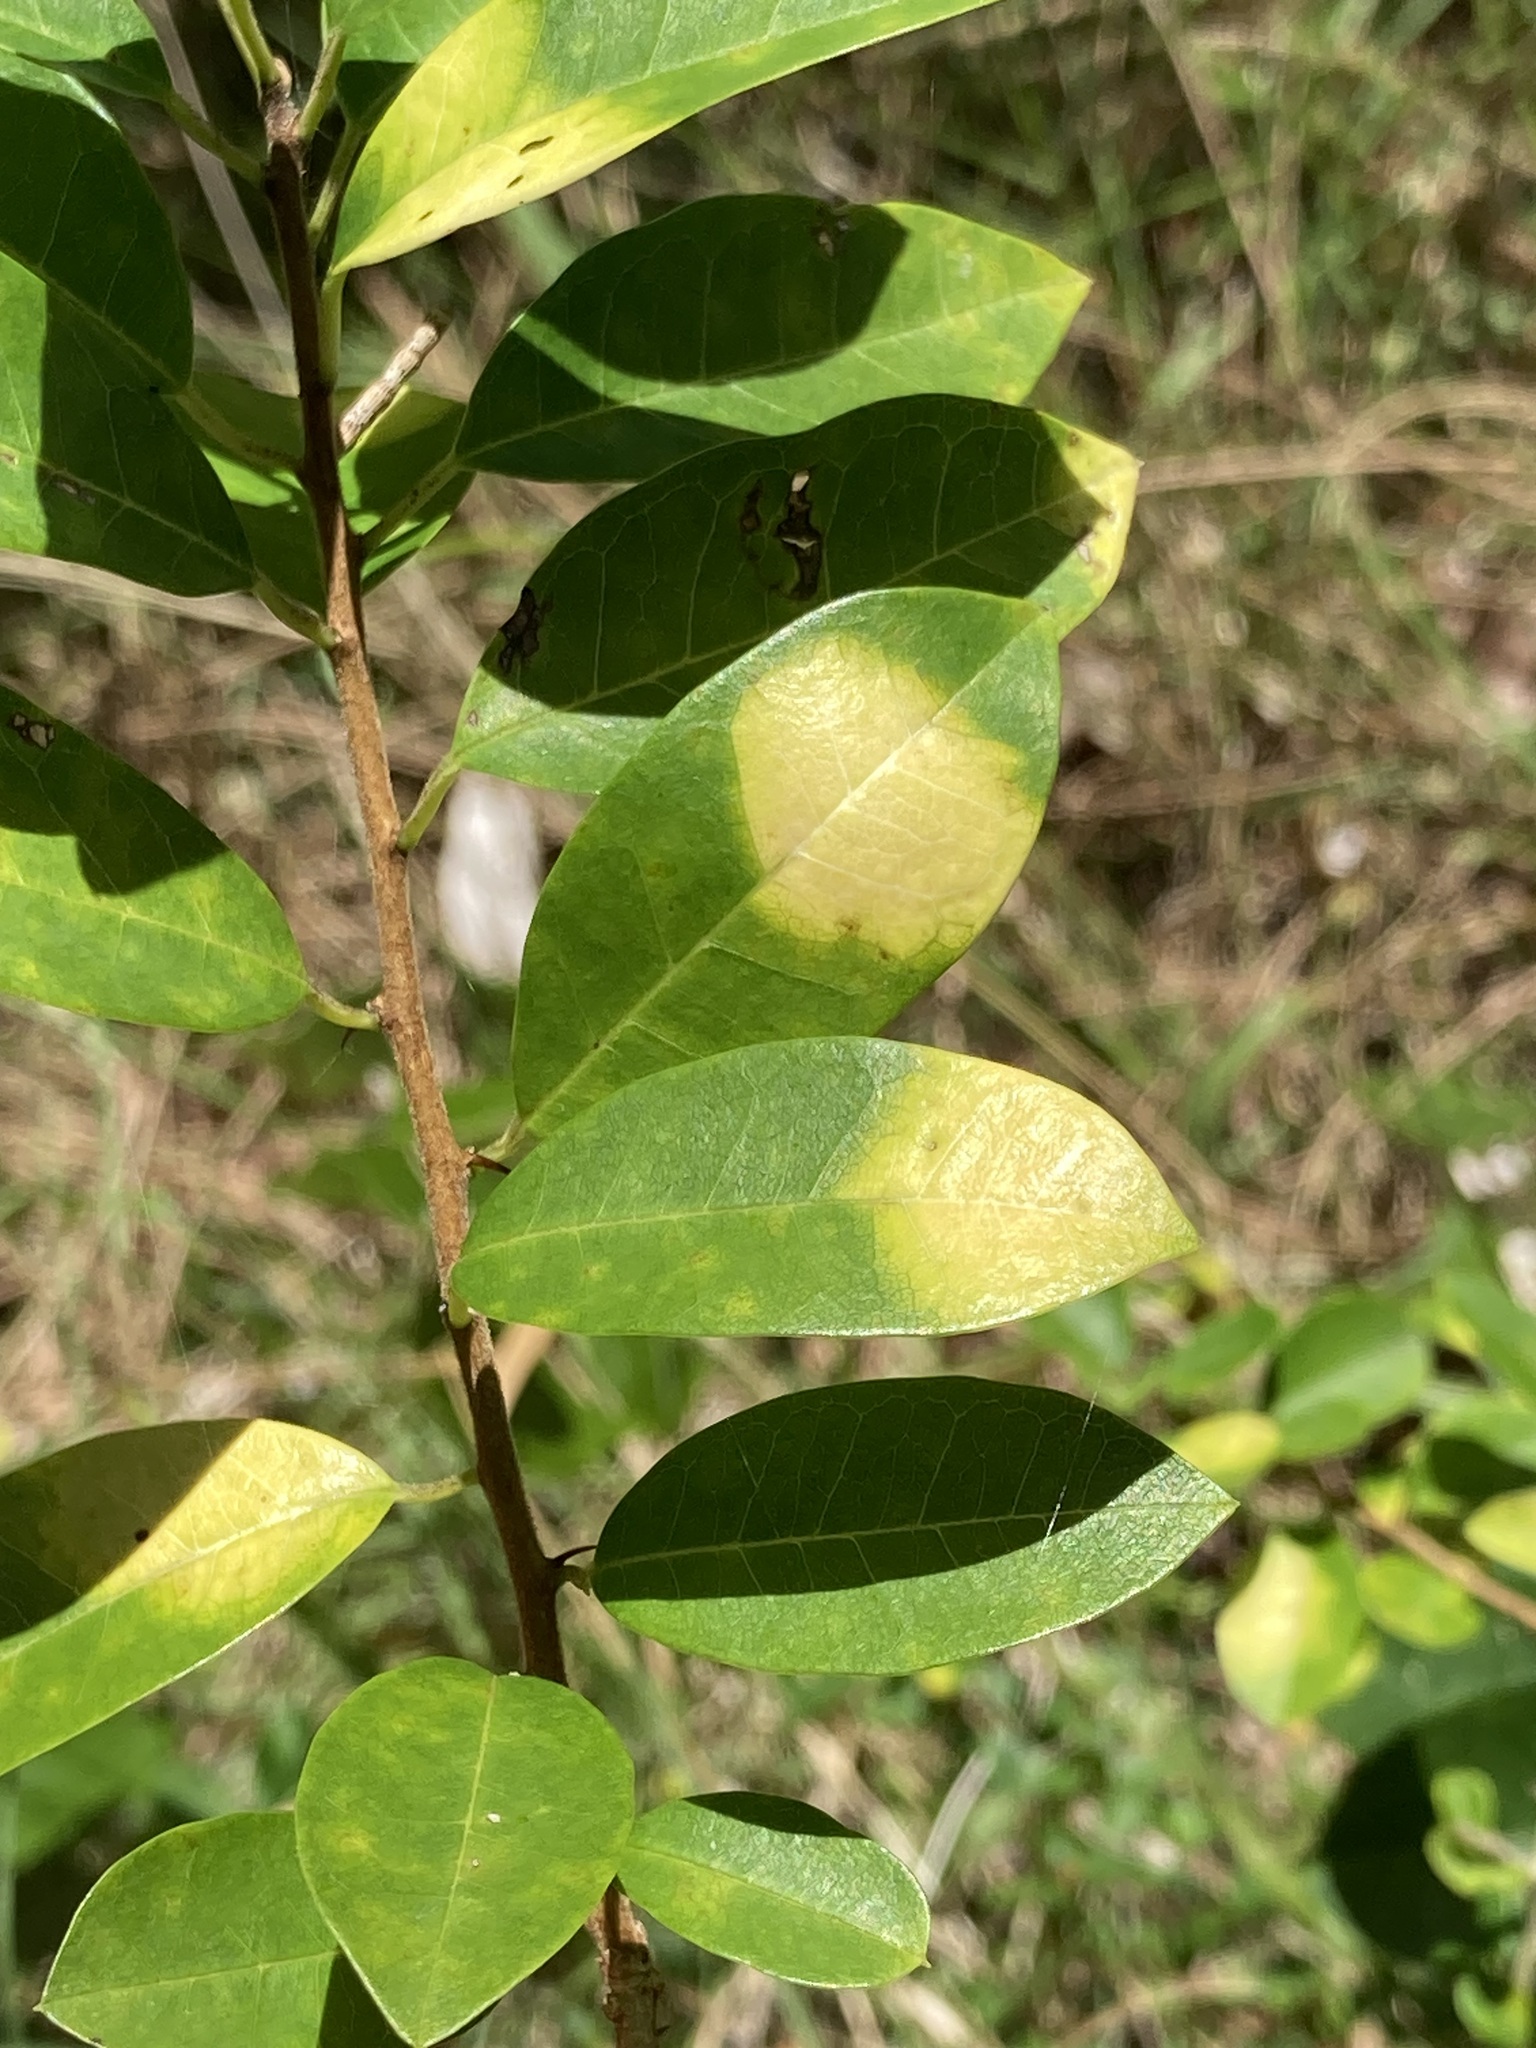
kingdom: Fungi
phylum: Ascomycota
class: Dothideomycetes
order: Mycosphaerellales
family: Mycosphaerellaceae
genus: Zasmidium
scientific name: Zasmidium macluricola
